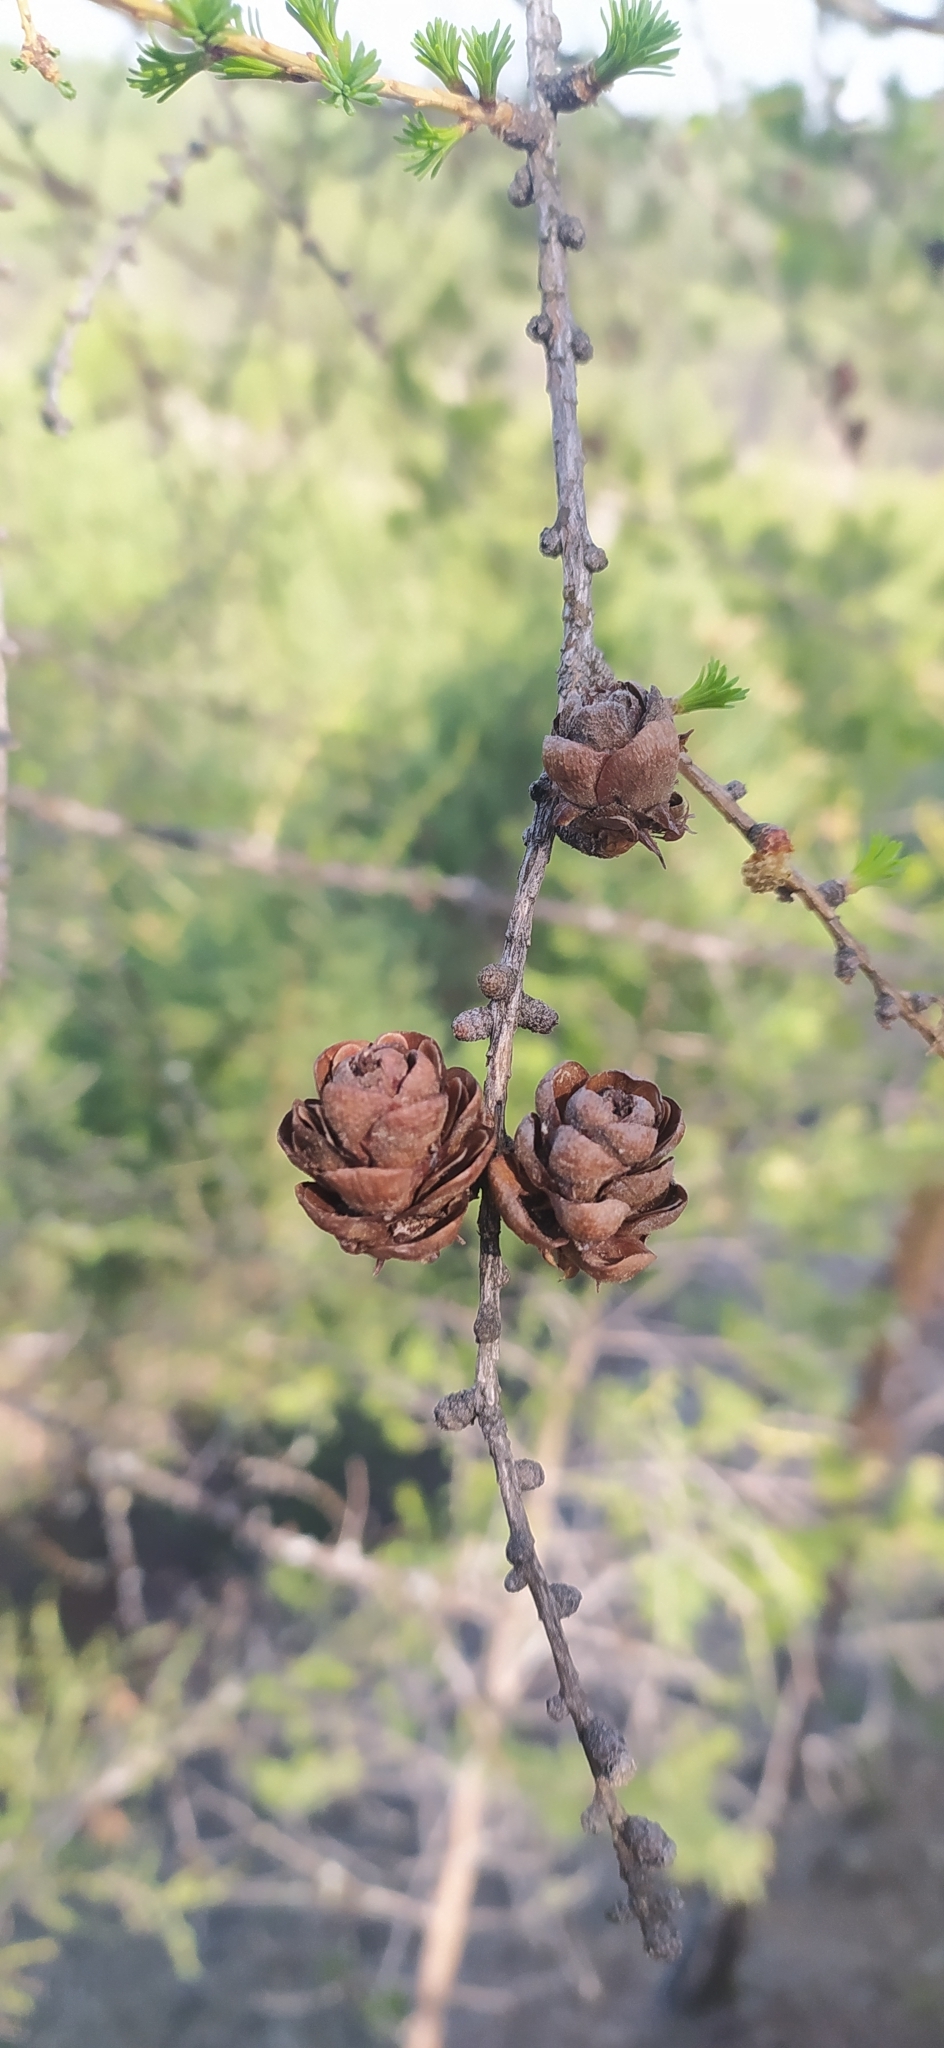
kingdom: Plantae
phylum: Tracheophyta
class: Pinopsida
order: Pinales
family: Pinaceae
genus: Larix
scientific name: Larix sibirica
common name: Siberian larch
